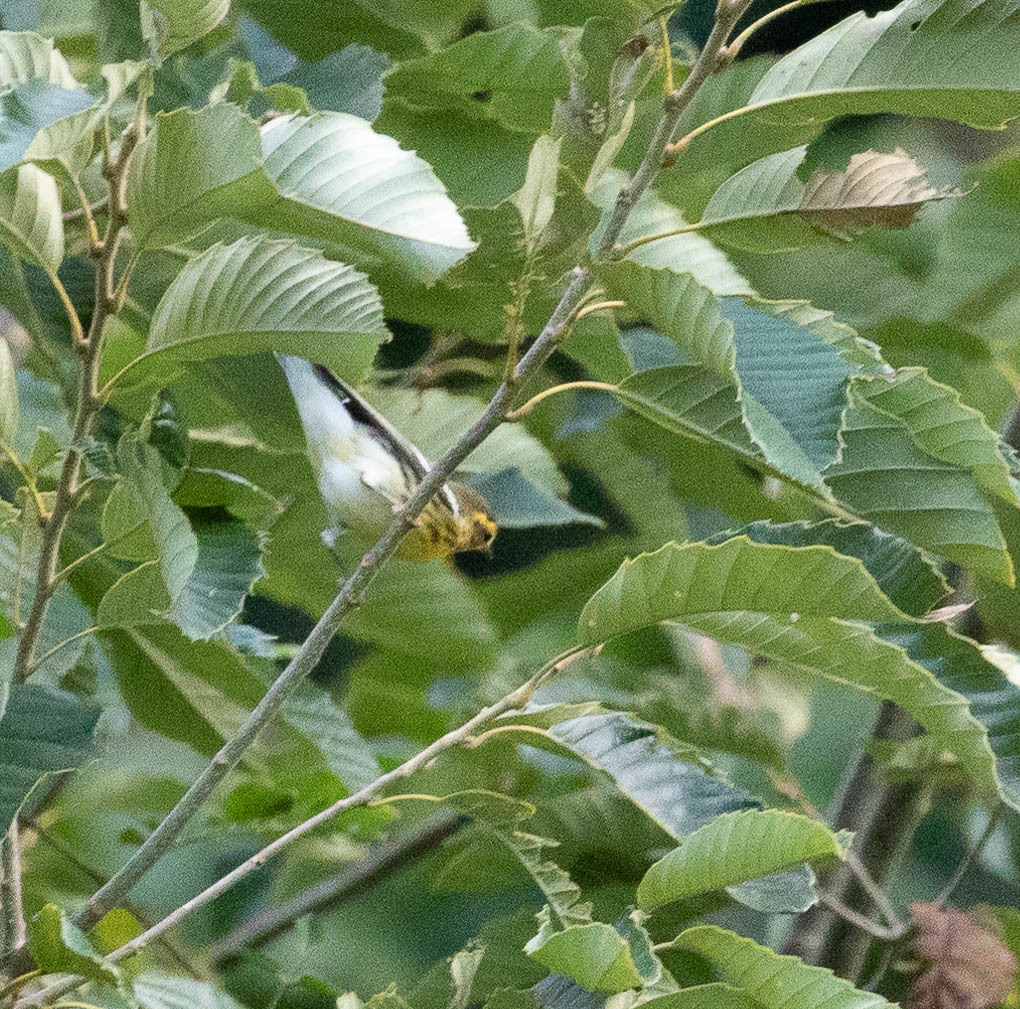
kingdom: Animalia
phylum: Chordata
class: Aves
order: Passeriformes
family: Parulidae
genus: Setophaga
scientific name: Setophaga fusca
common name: Blackburnian warbler
